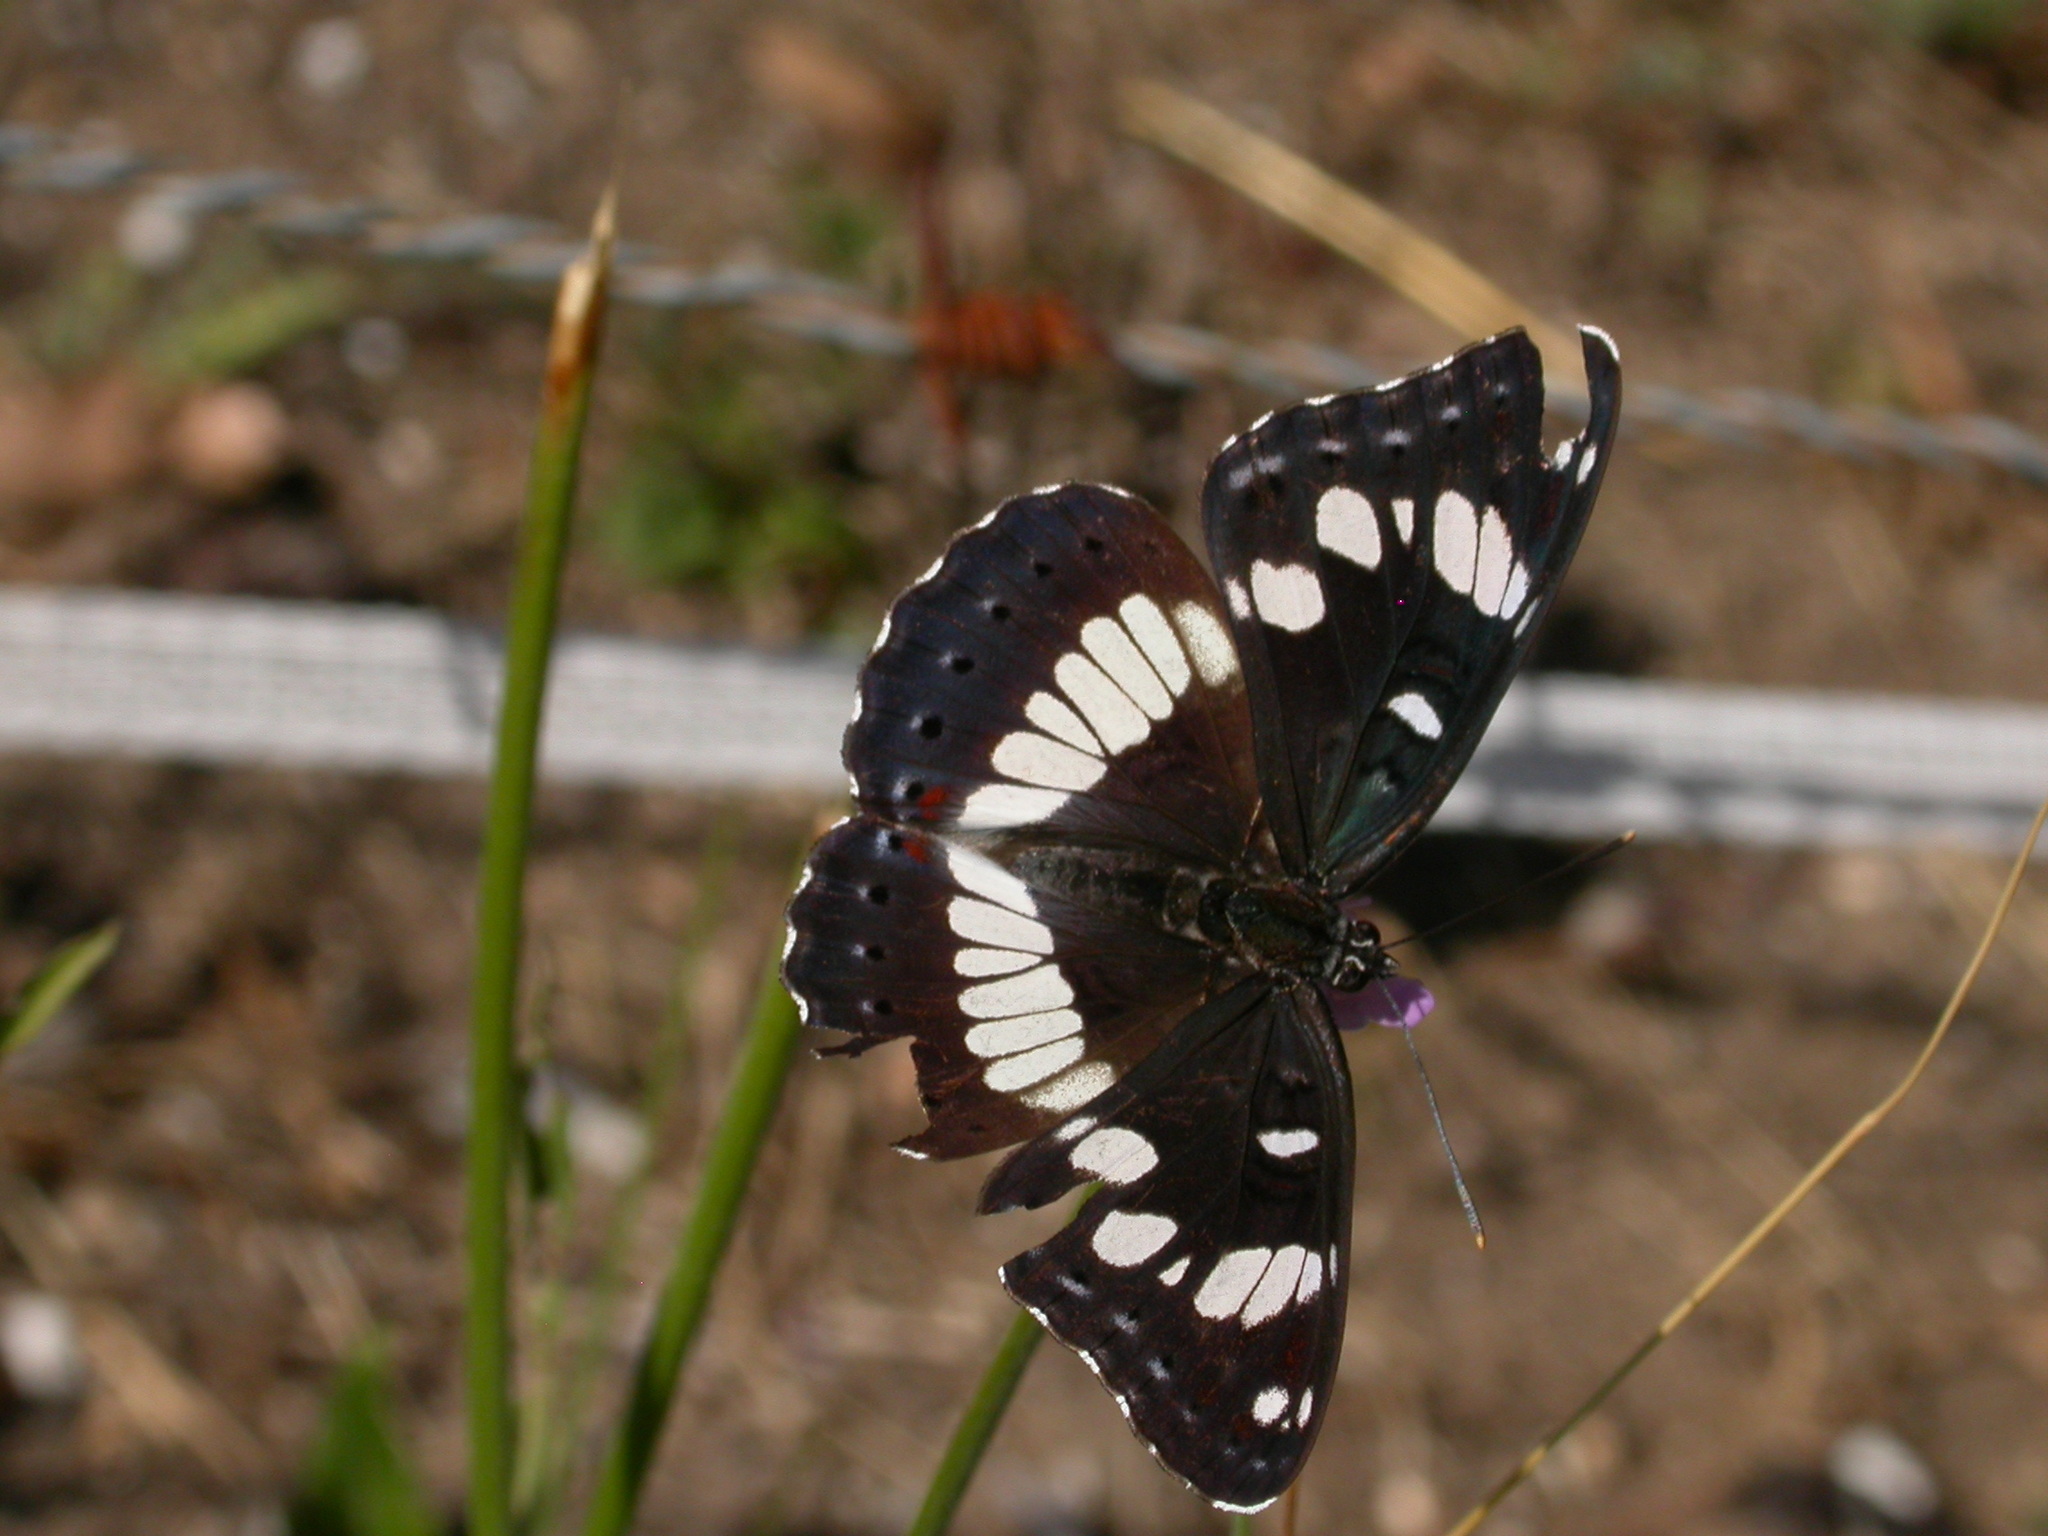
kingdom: Animalia
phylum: Arthropoda
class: Insecta
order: Lepidoptera
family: Nymphalidae
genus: Limenitis
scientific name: Limenitis reducta
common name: Southern white admiral
